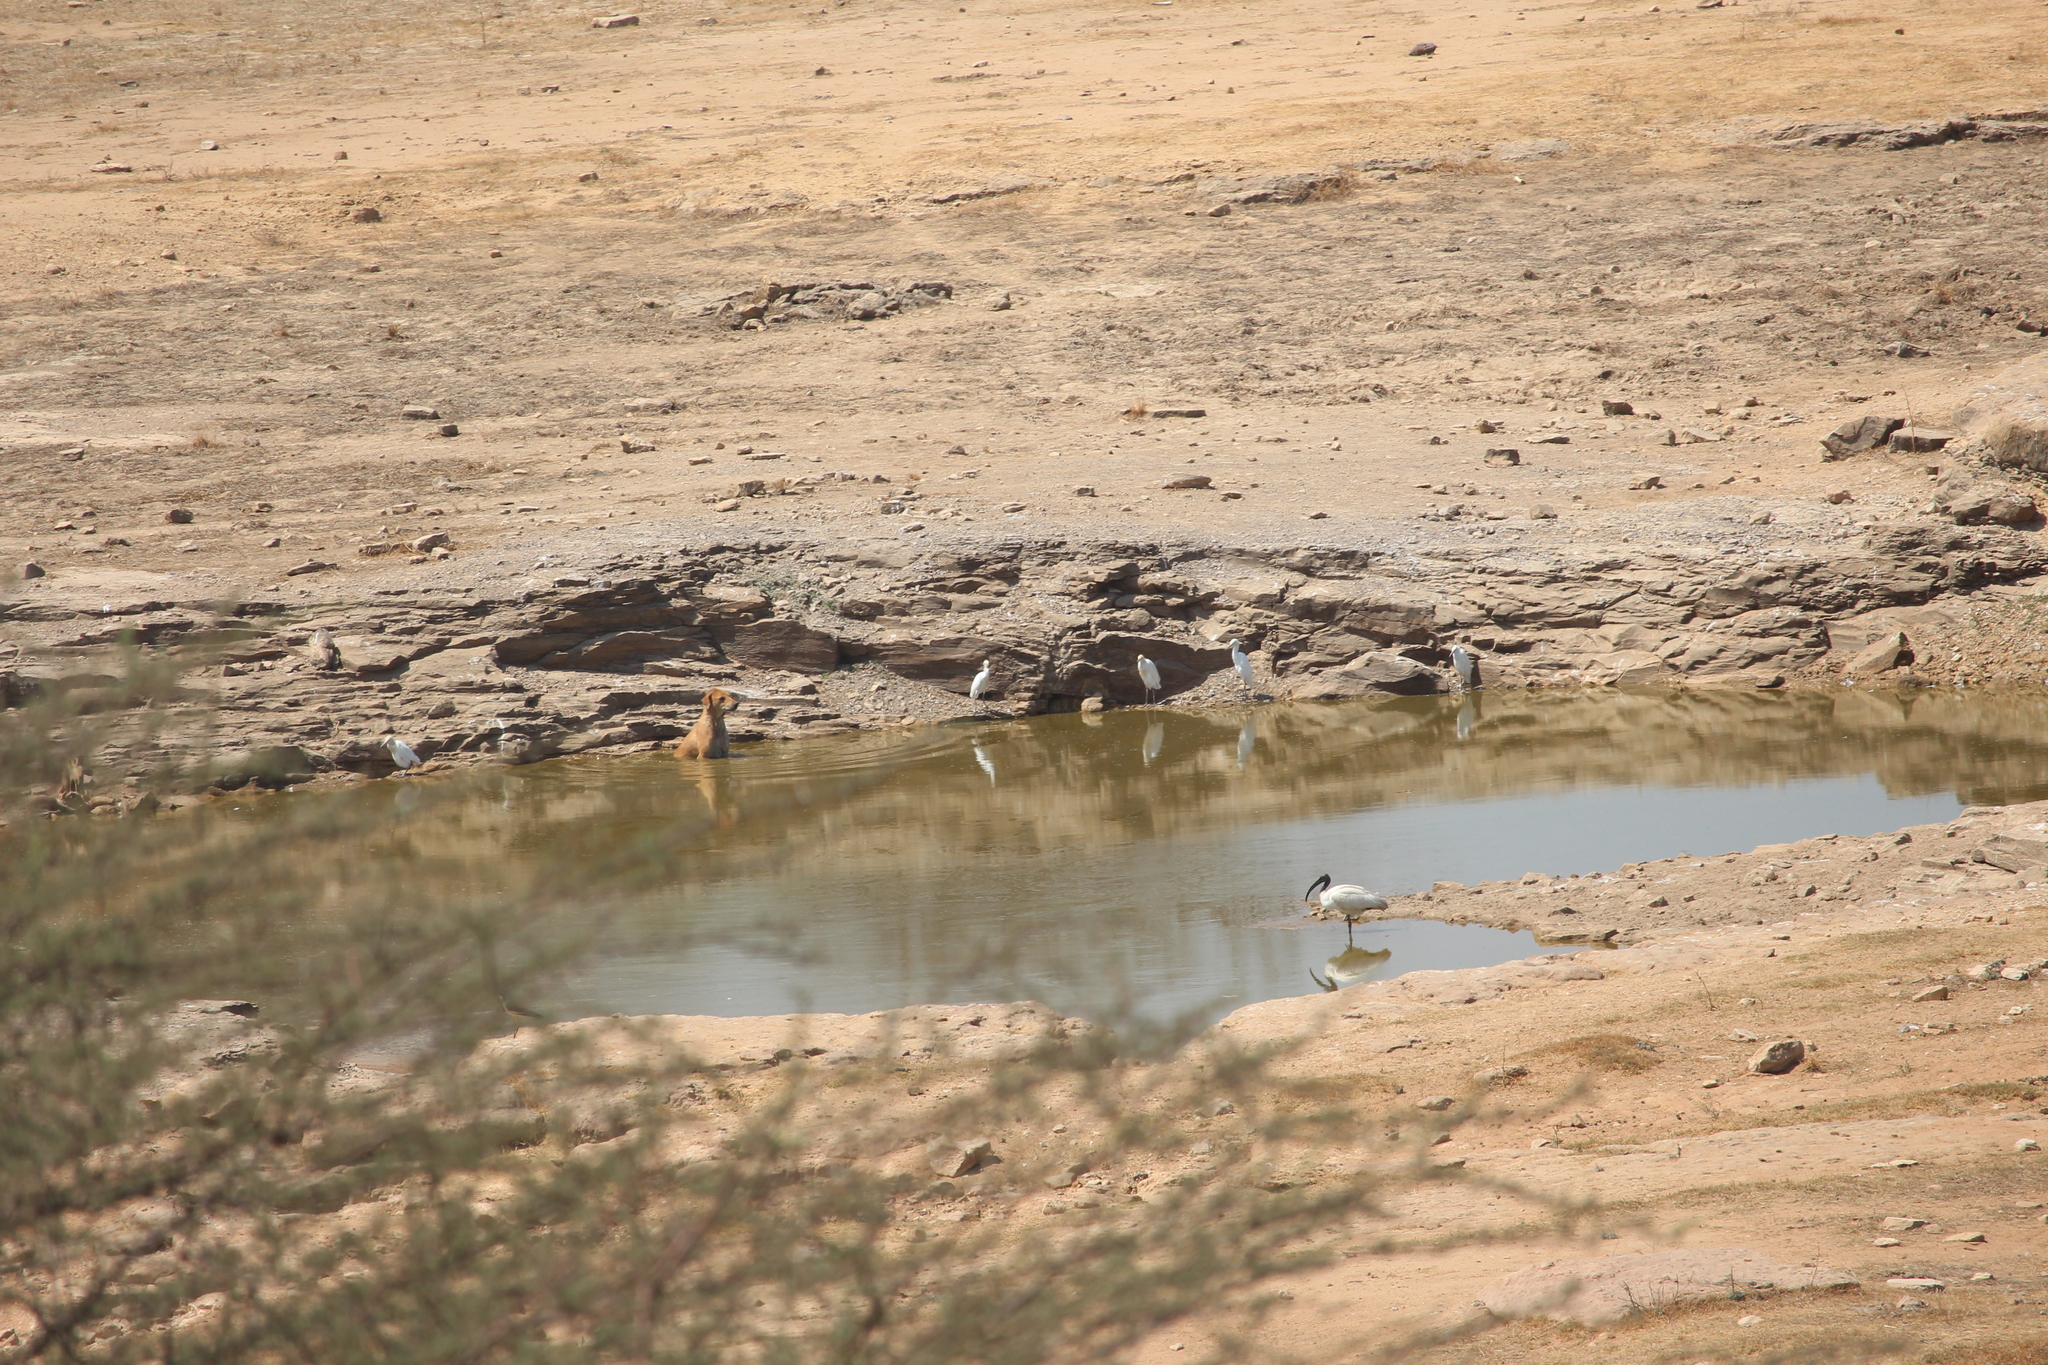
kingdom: Animalia
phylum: Chordata
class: Aves
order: Pelecaniformes
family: Threskiornithidae
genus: Threskiornis
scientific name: Threskiornis melanocephalus
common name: Black-headed ibis
